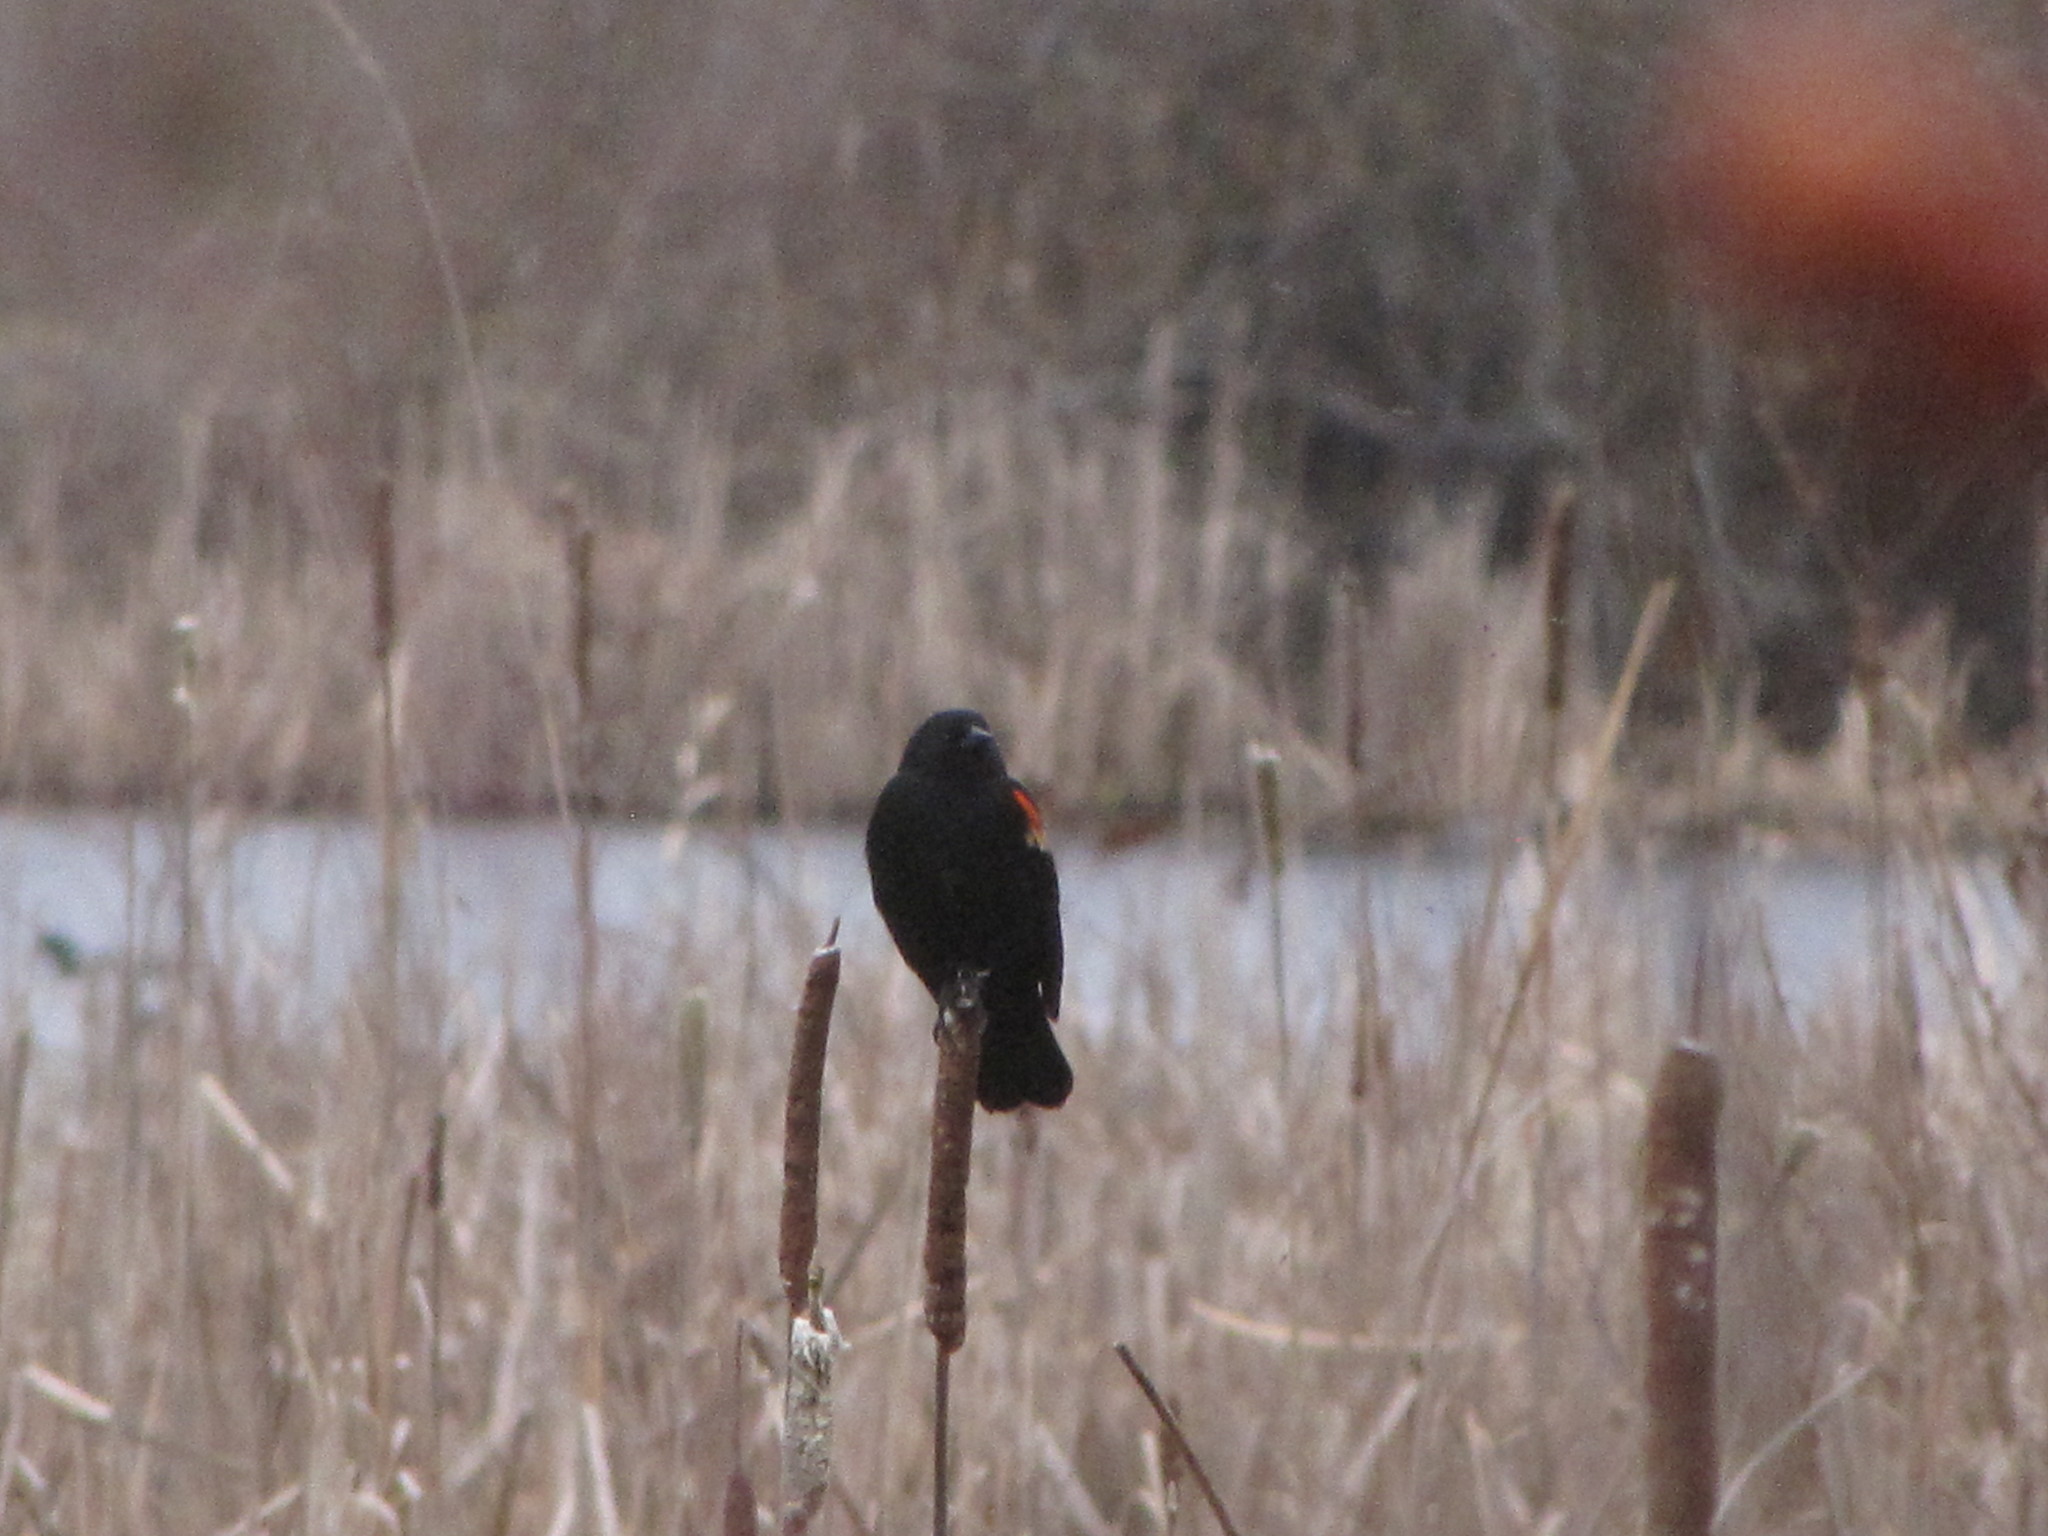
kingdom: Animalia
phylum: Chordata
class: Aves
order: Passeriformes
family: Icteridae
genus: Agelaius
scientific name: Agelaius phoeniceus
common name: Red-winged blackbird
